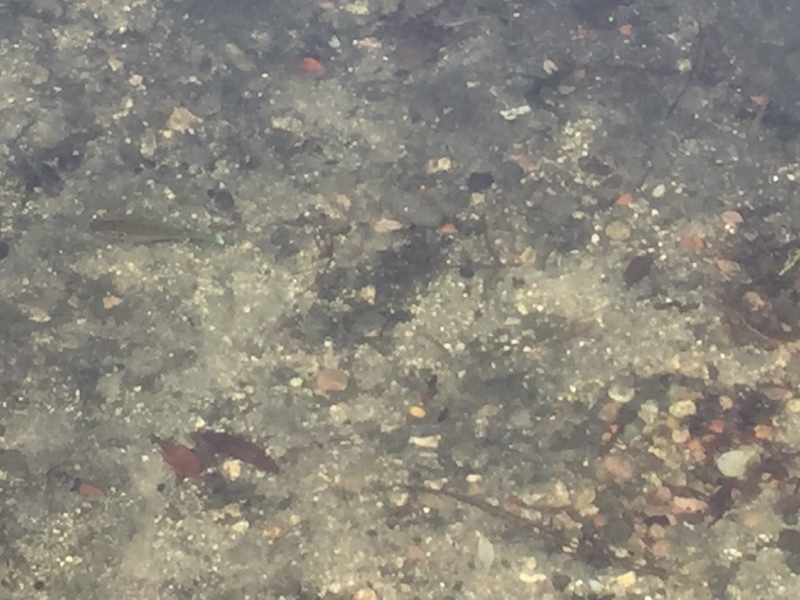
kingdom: Animalia
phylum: Chordata
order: Perciformes
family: Centrarchidae
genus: Lepomis
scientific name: Lepomis gibbosus
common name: Pumpkinseed
